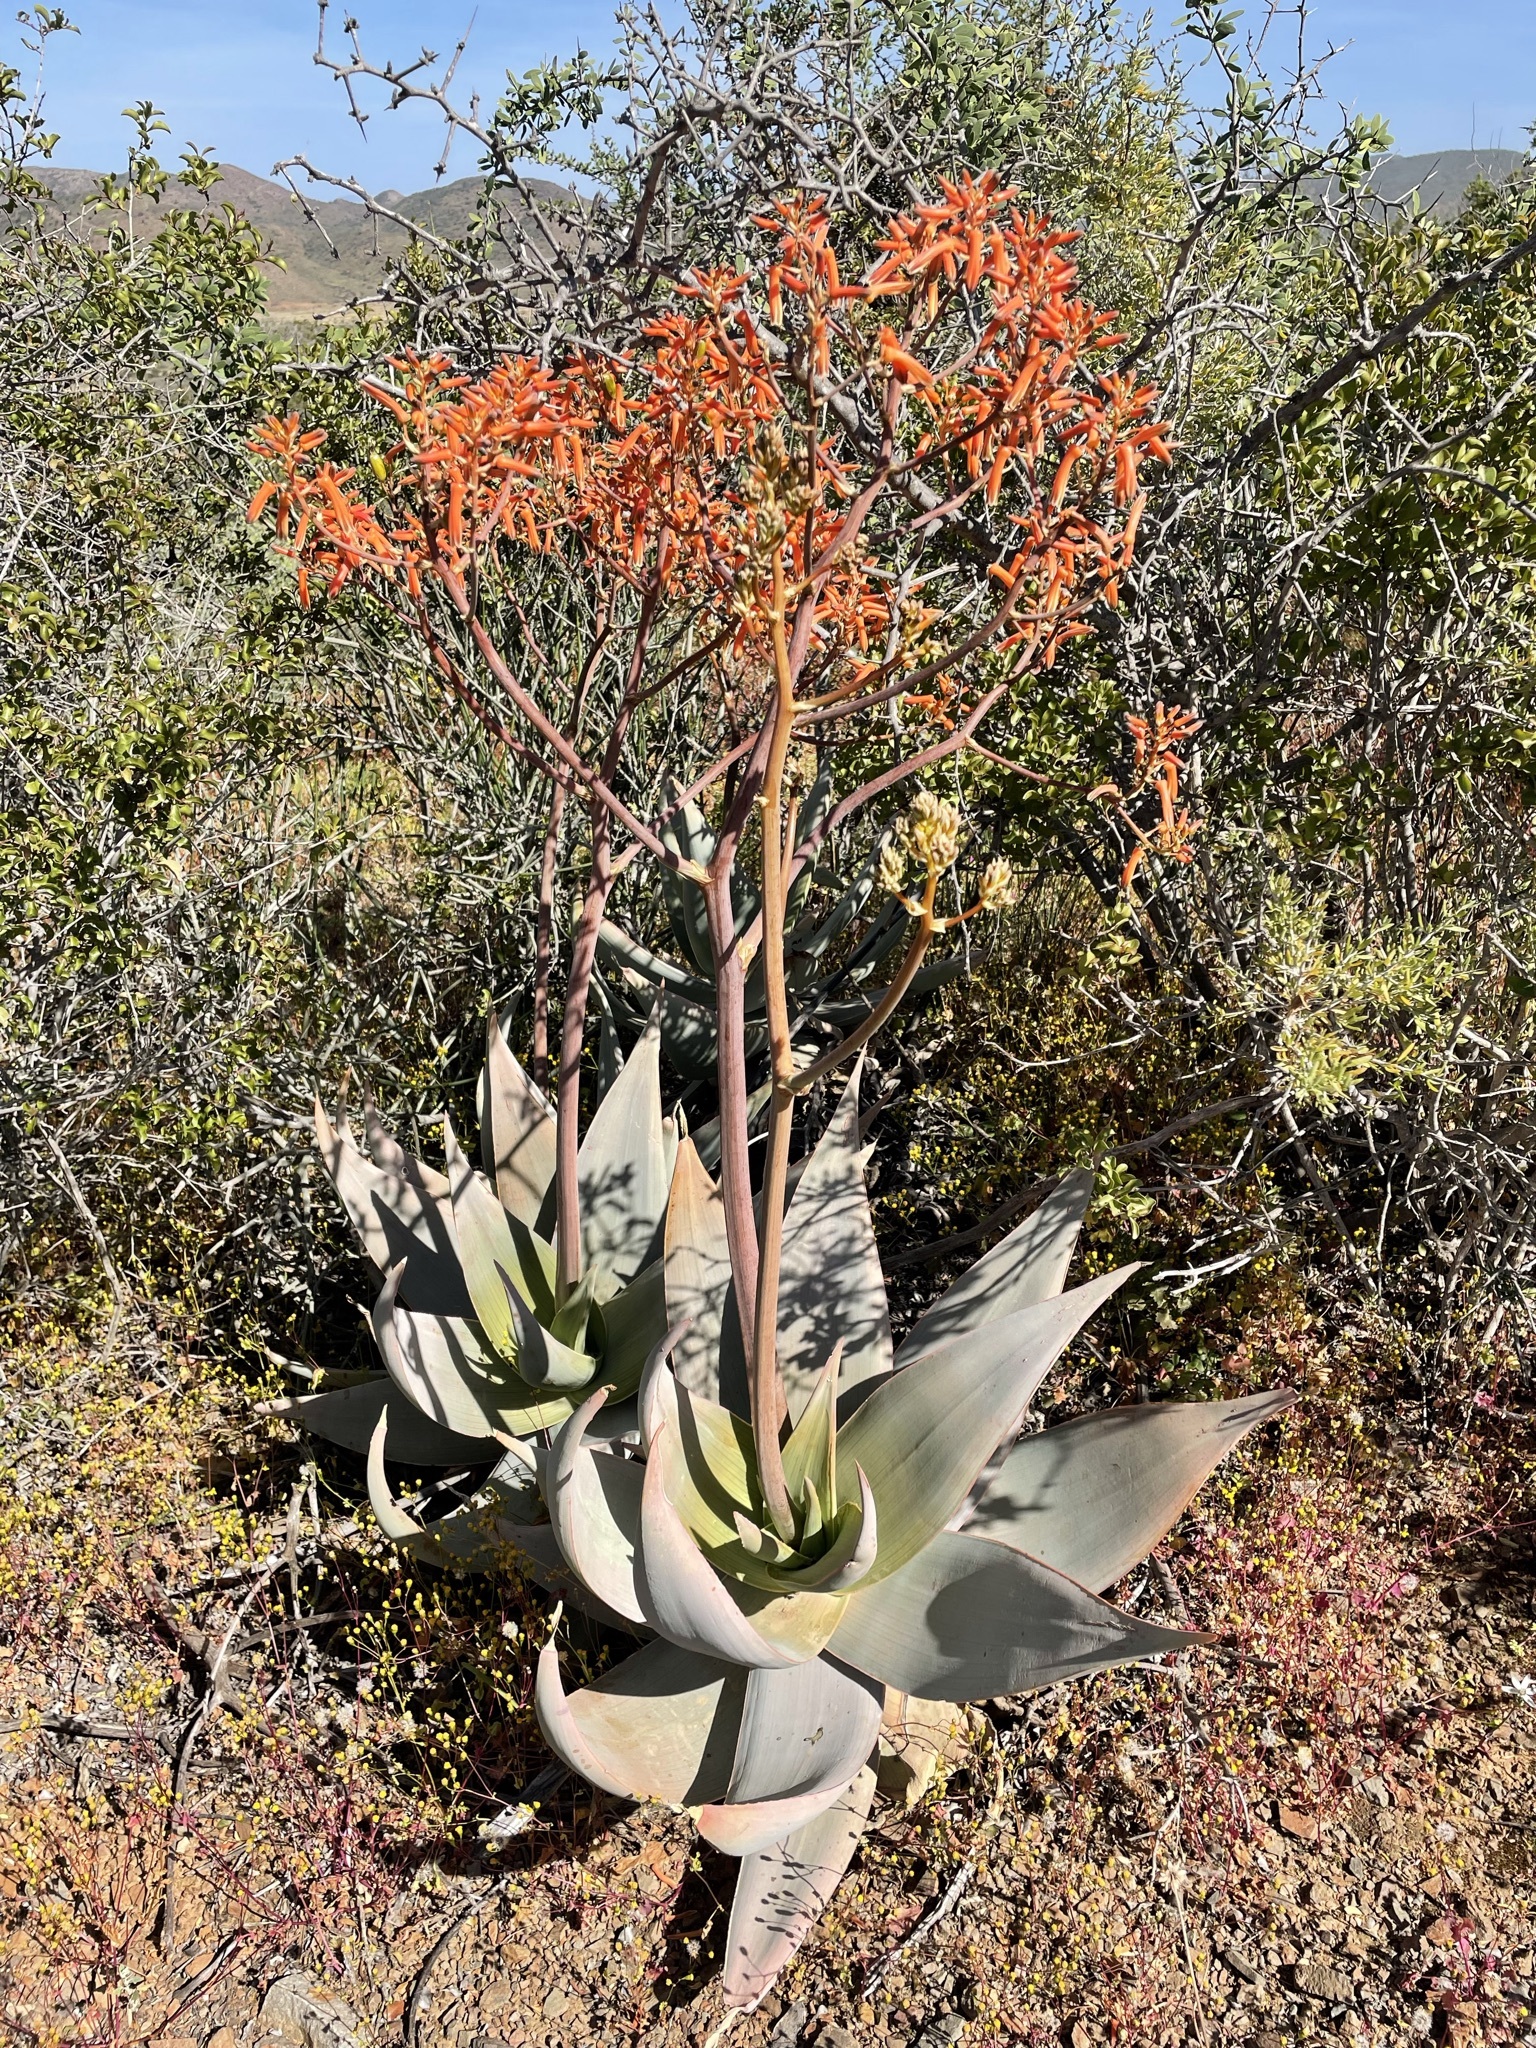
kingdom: Plantae
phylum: Tracheophyta
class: Liliopsida
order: Asparagales
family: Asphodelaceae
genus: Aloe
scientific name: Aloe striata
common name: Coral aloe
